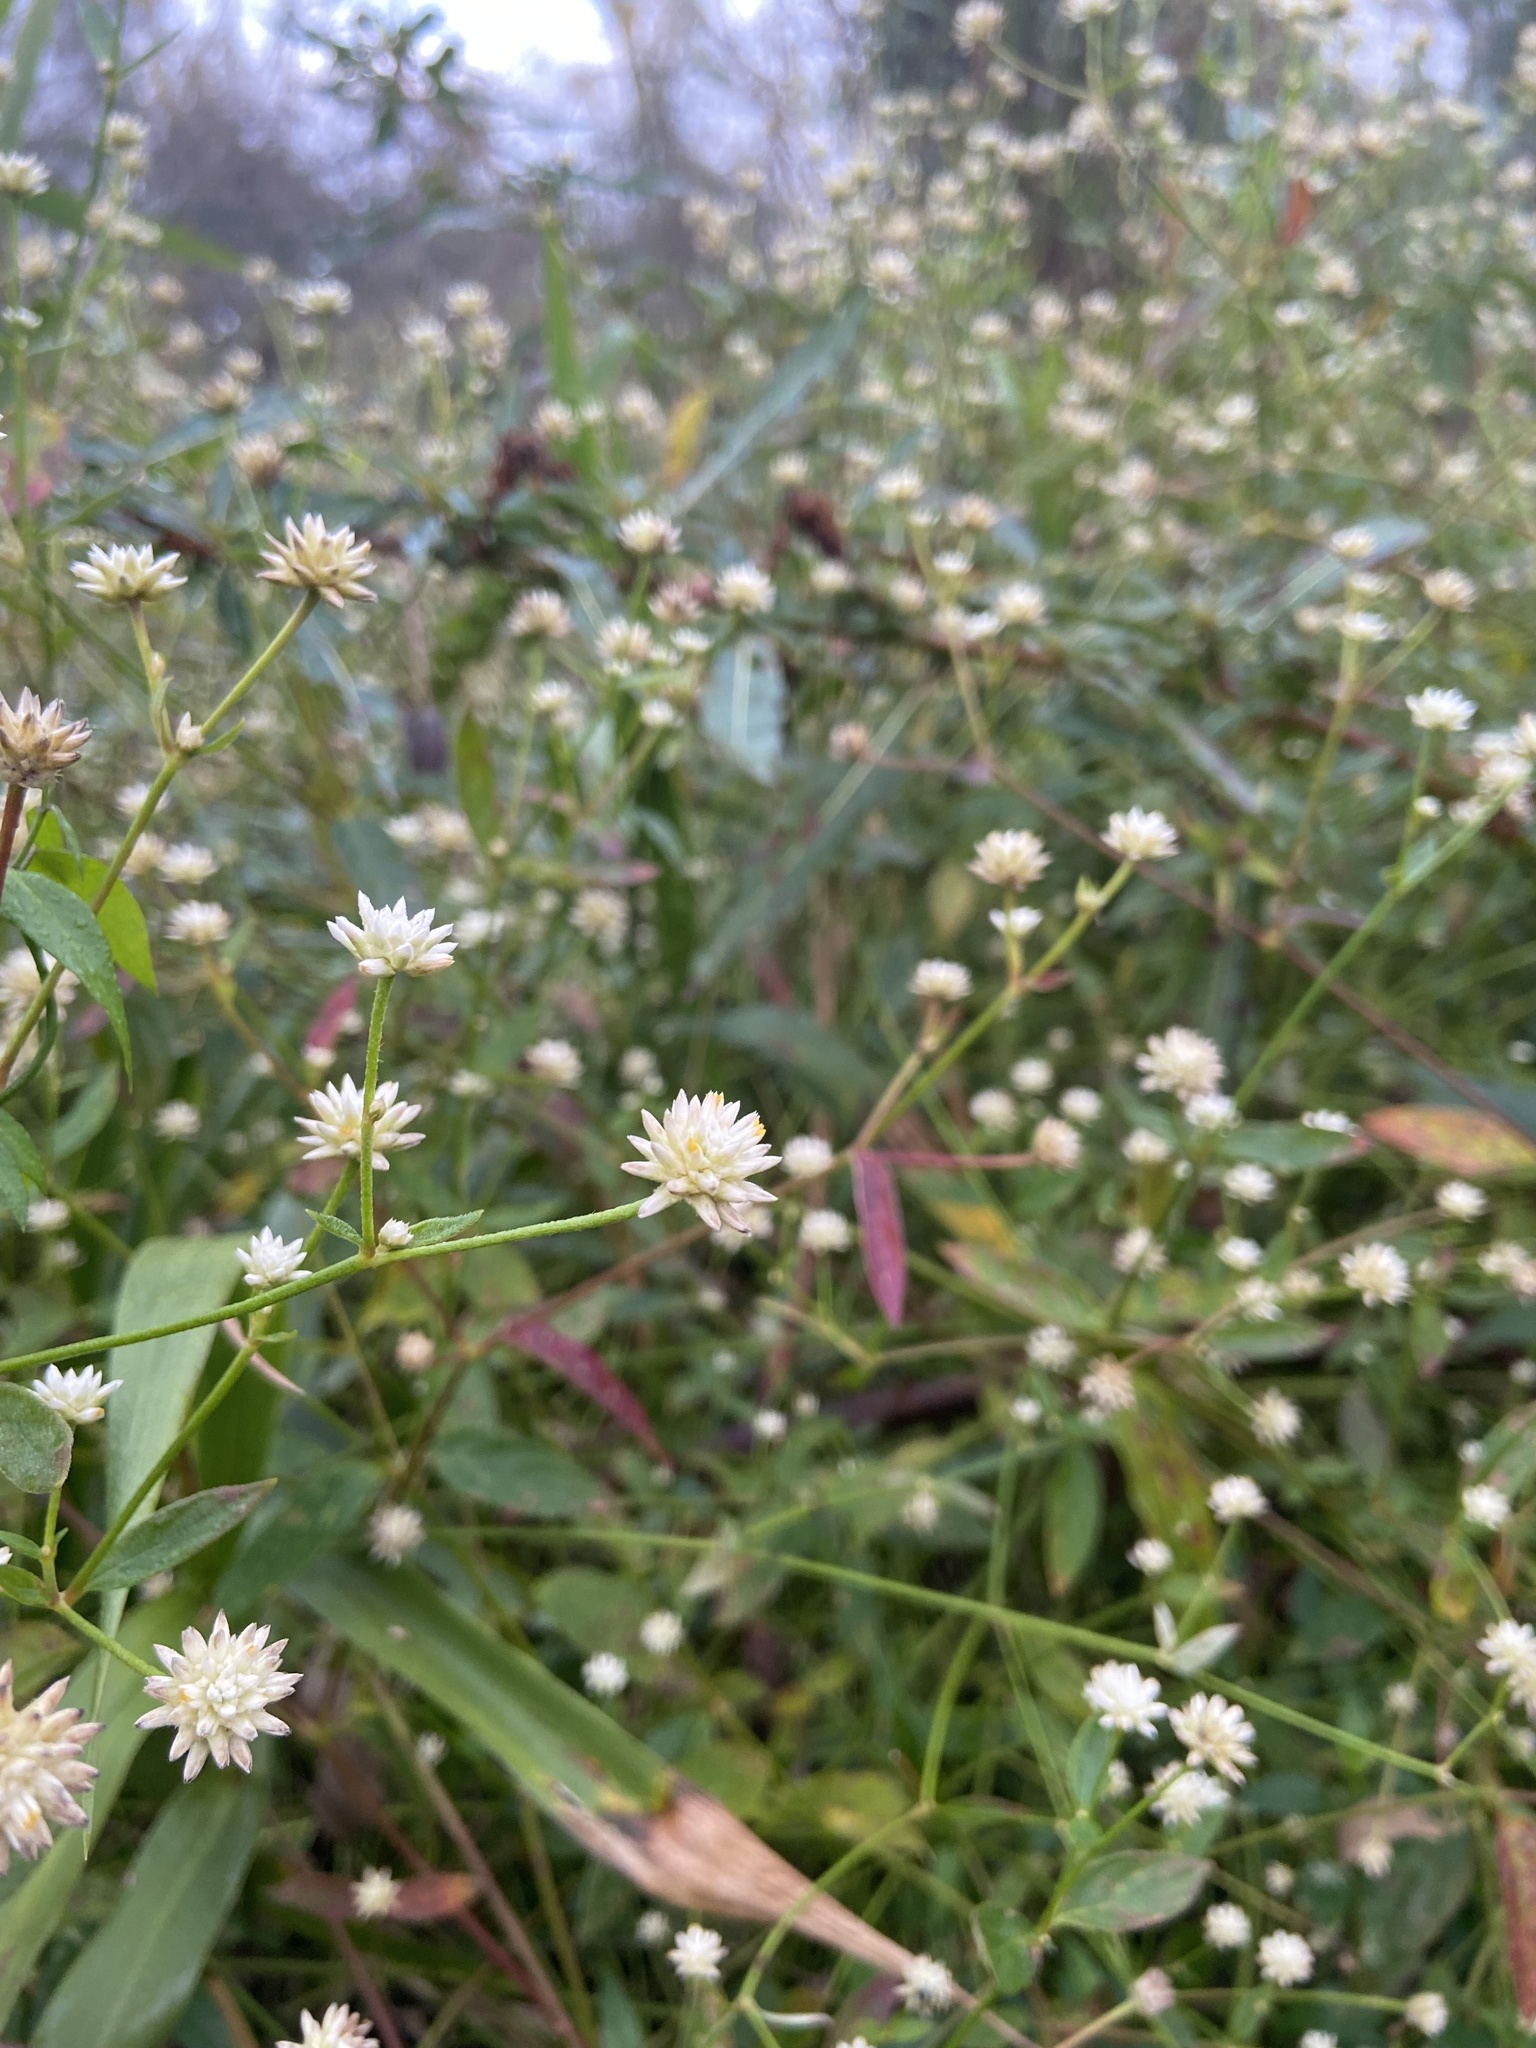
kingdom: Plantae
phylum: Tracheophyta
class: Magnoliopsida
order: Caryophyllales
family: Amaranthaceae
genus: Pfaffia
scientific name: Pfaffia glomerata
